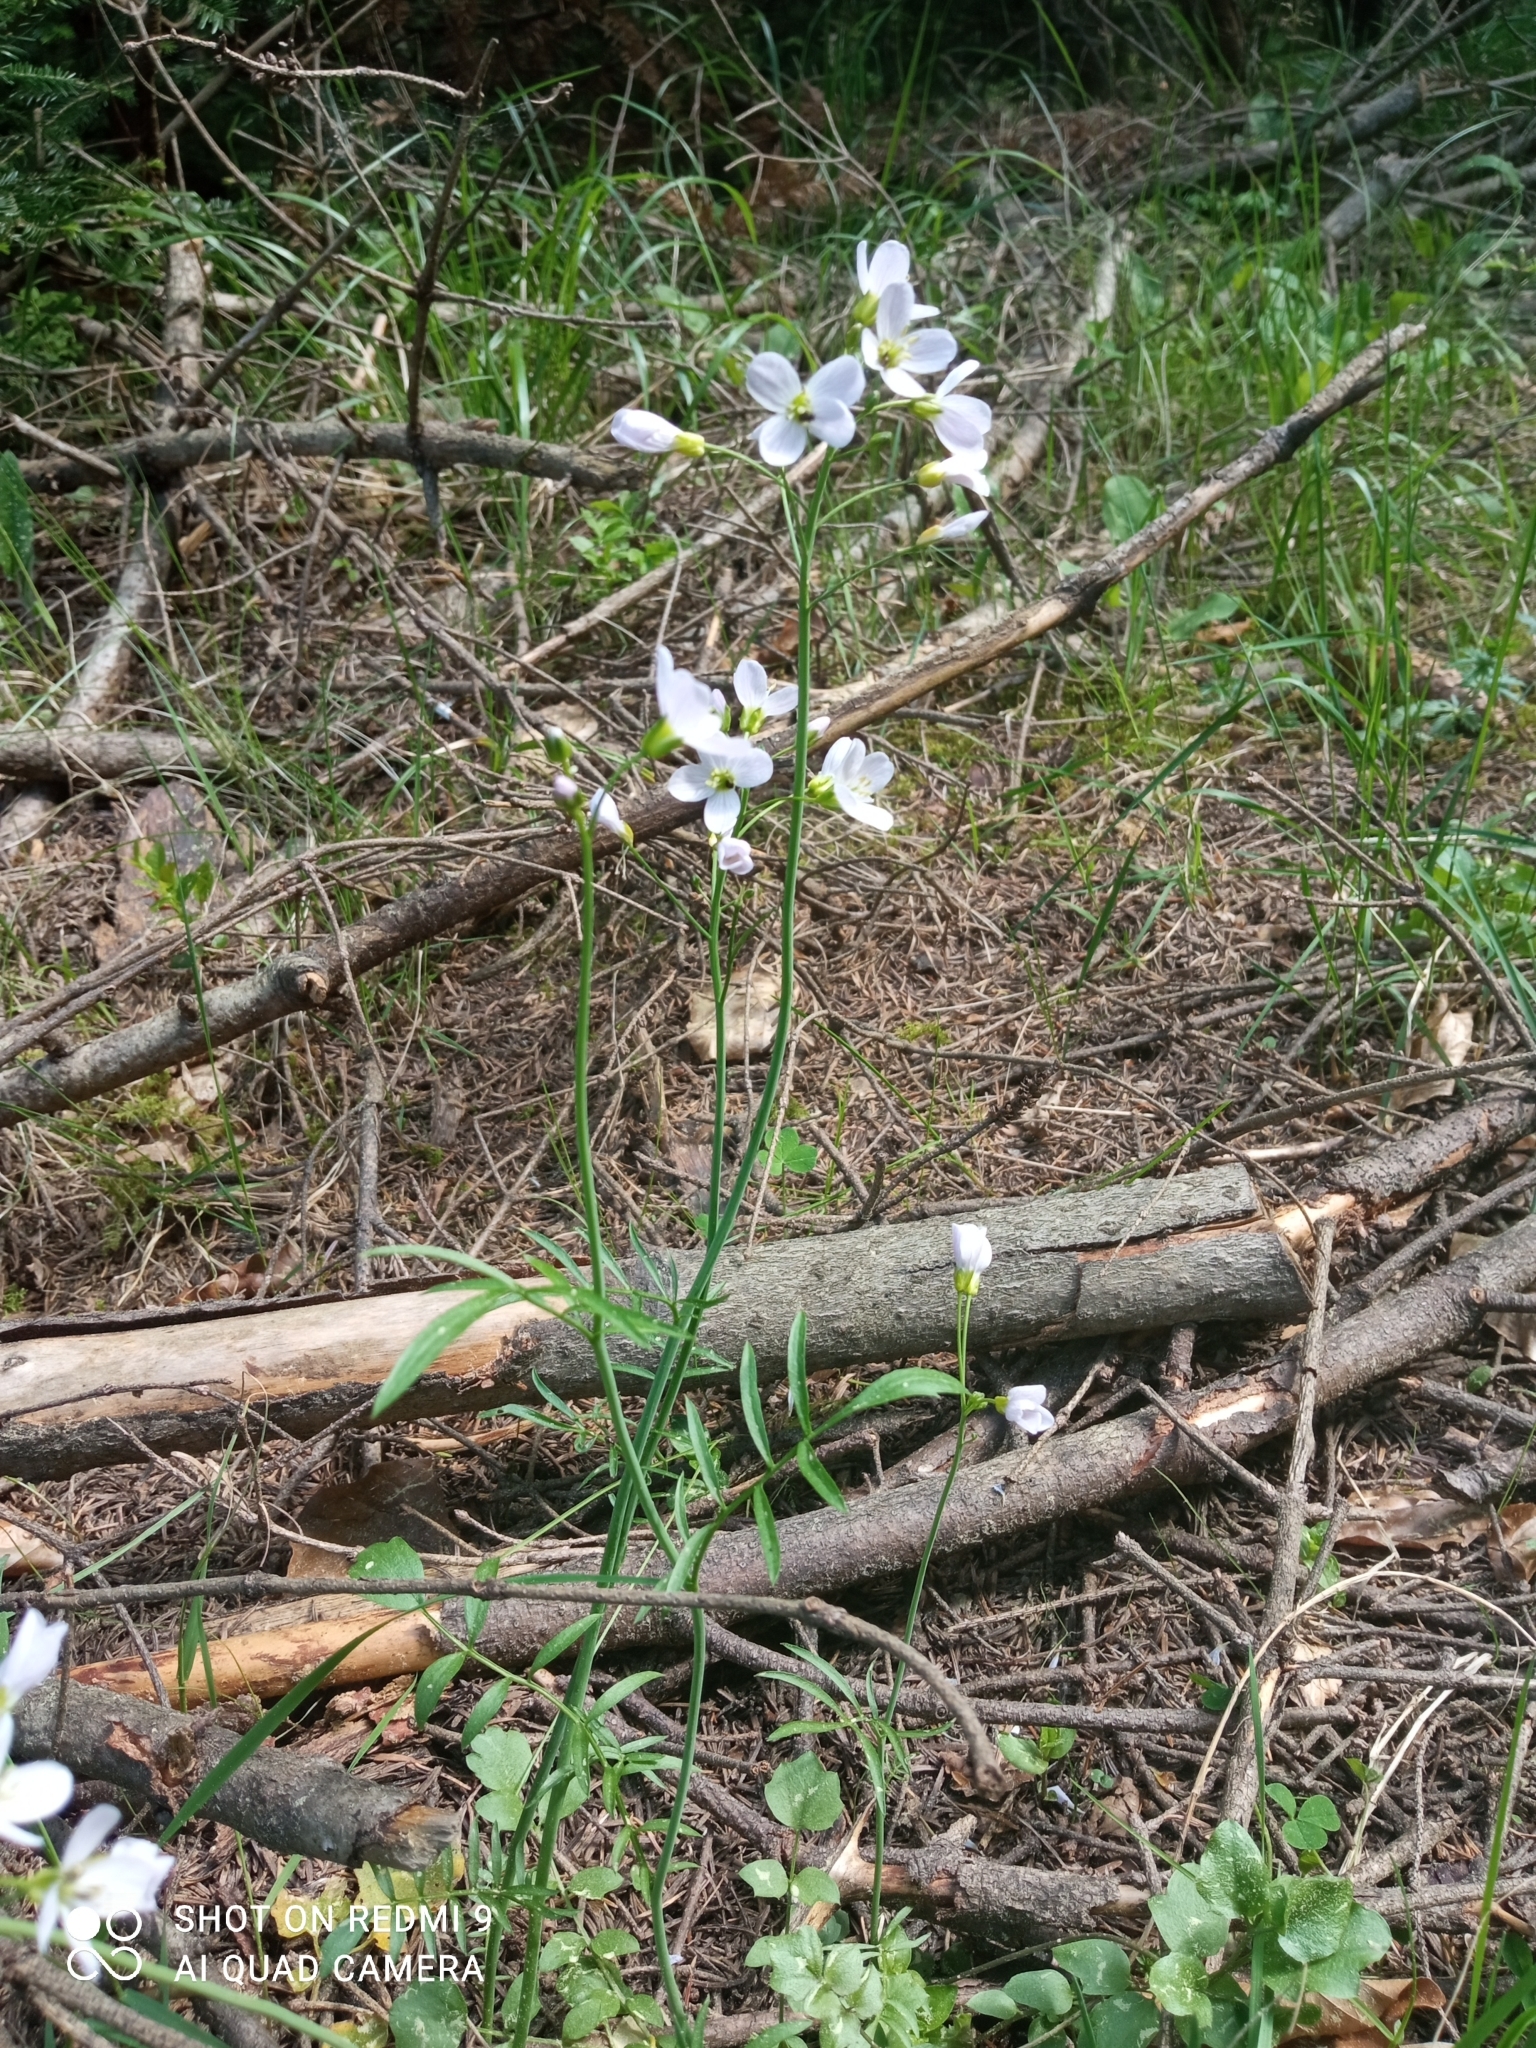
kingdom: Plantae
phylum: Tracheophyta
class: Magnoliopsida
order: Brassicales
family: Brassicaceae
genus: Cardamine
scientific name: Cardamine pratensis
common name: Cuckoo flower
